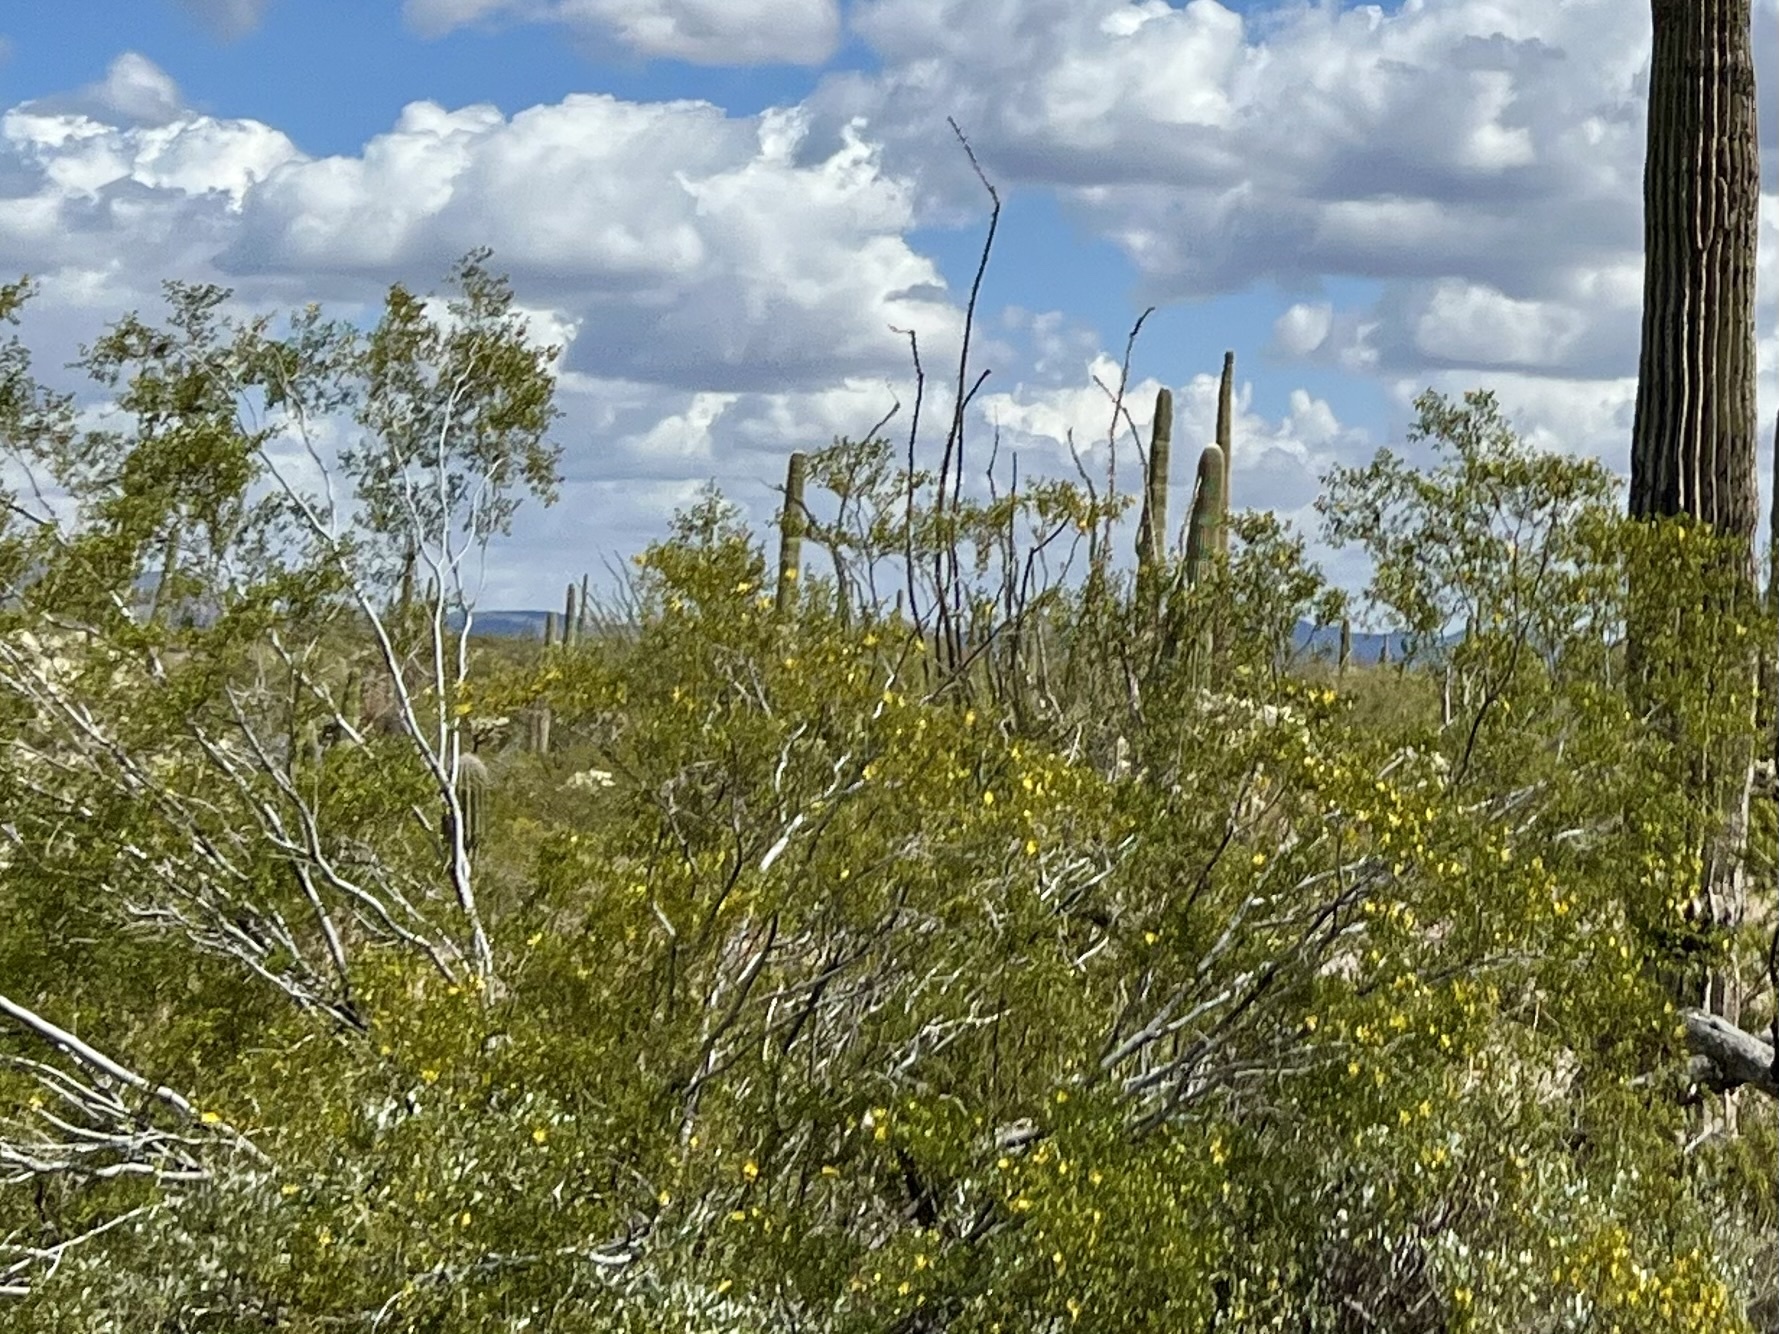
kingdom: Plantae
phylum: Tracheophyta
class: Magnoliopsida
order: Zygophyllales
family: Zygophyllaceae
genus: Larrea
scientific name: Larrea tridentata
